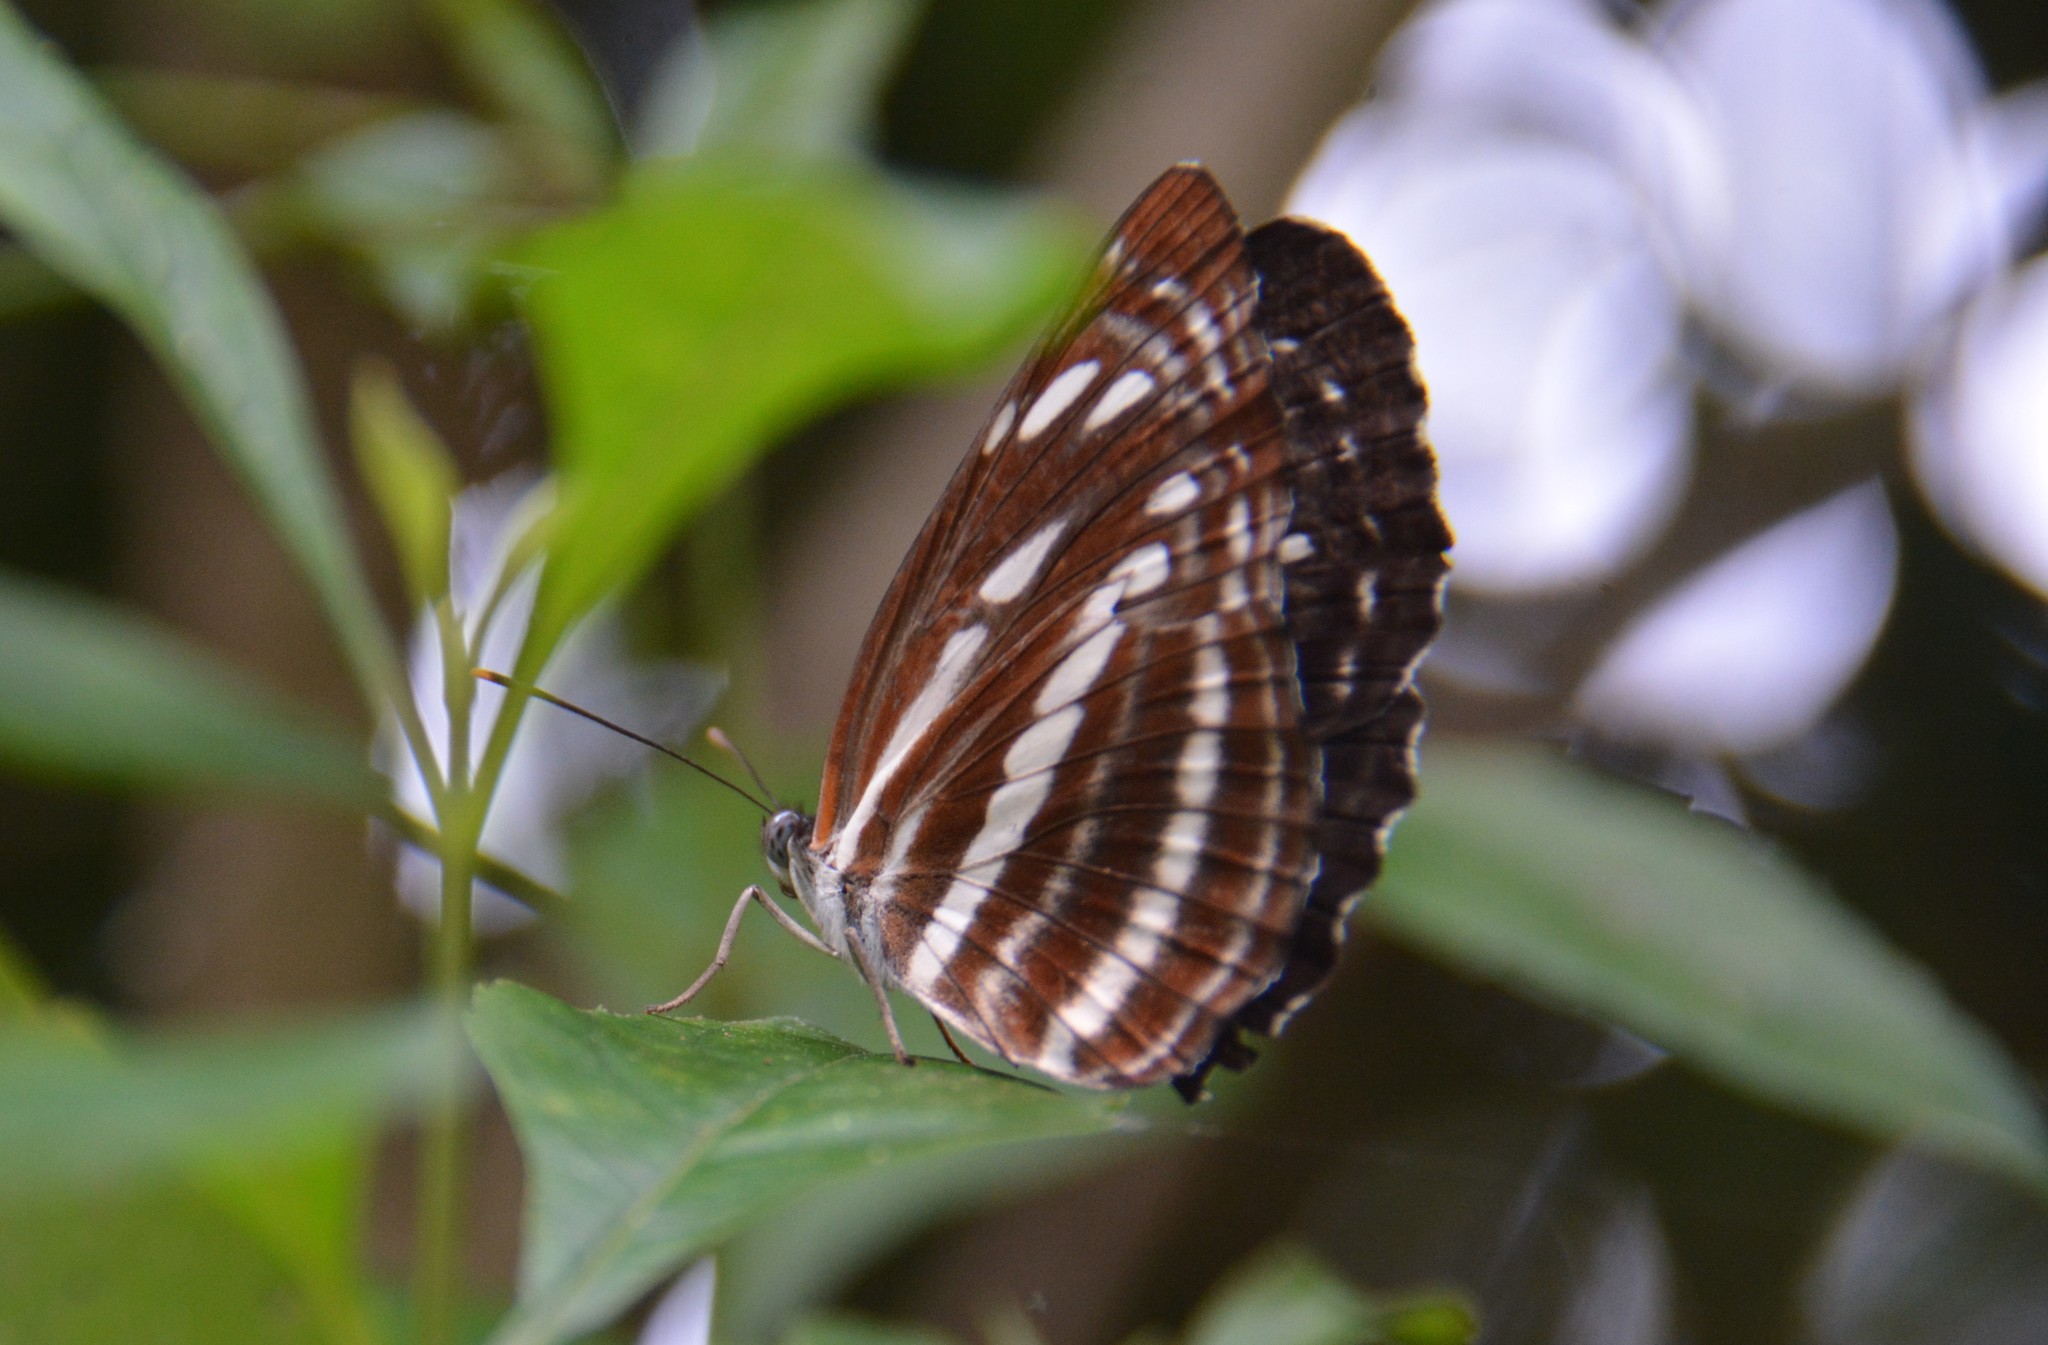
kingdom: Animalia
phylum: Arthropoda
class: Insecta
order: Lepidoptera
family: Nymphalidae
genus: Neptis
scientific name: Neptis nata
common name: Sullied brown sailer
